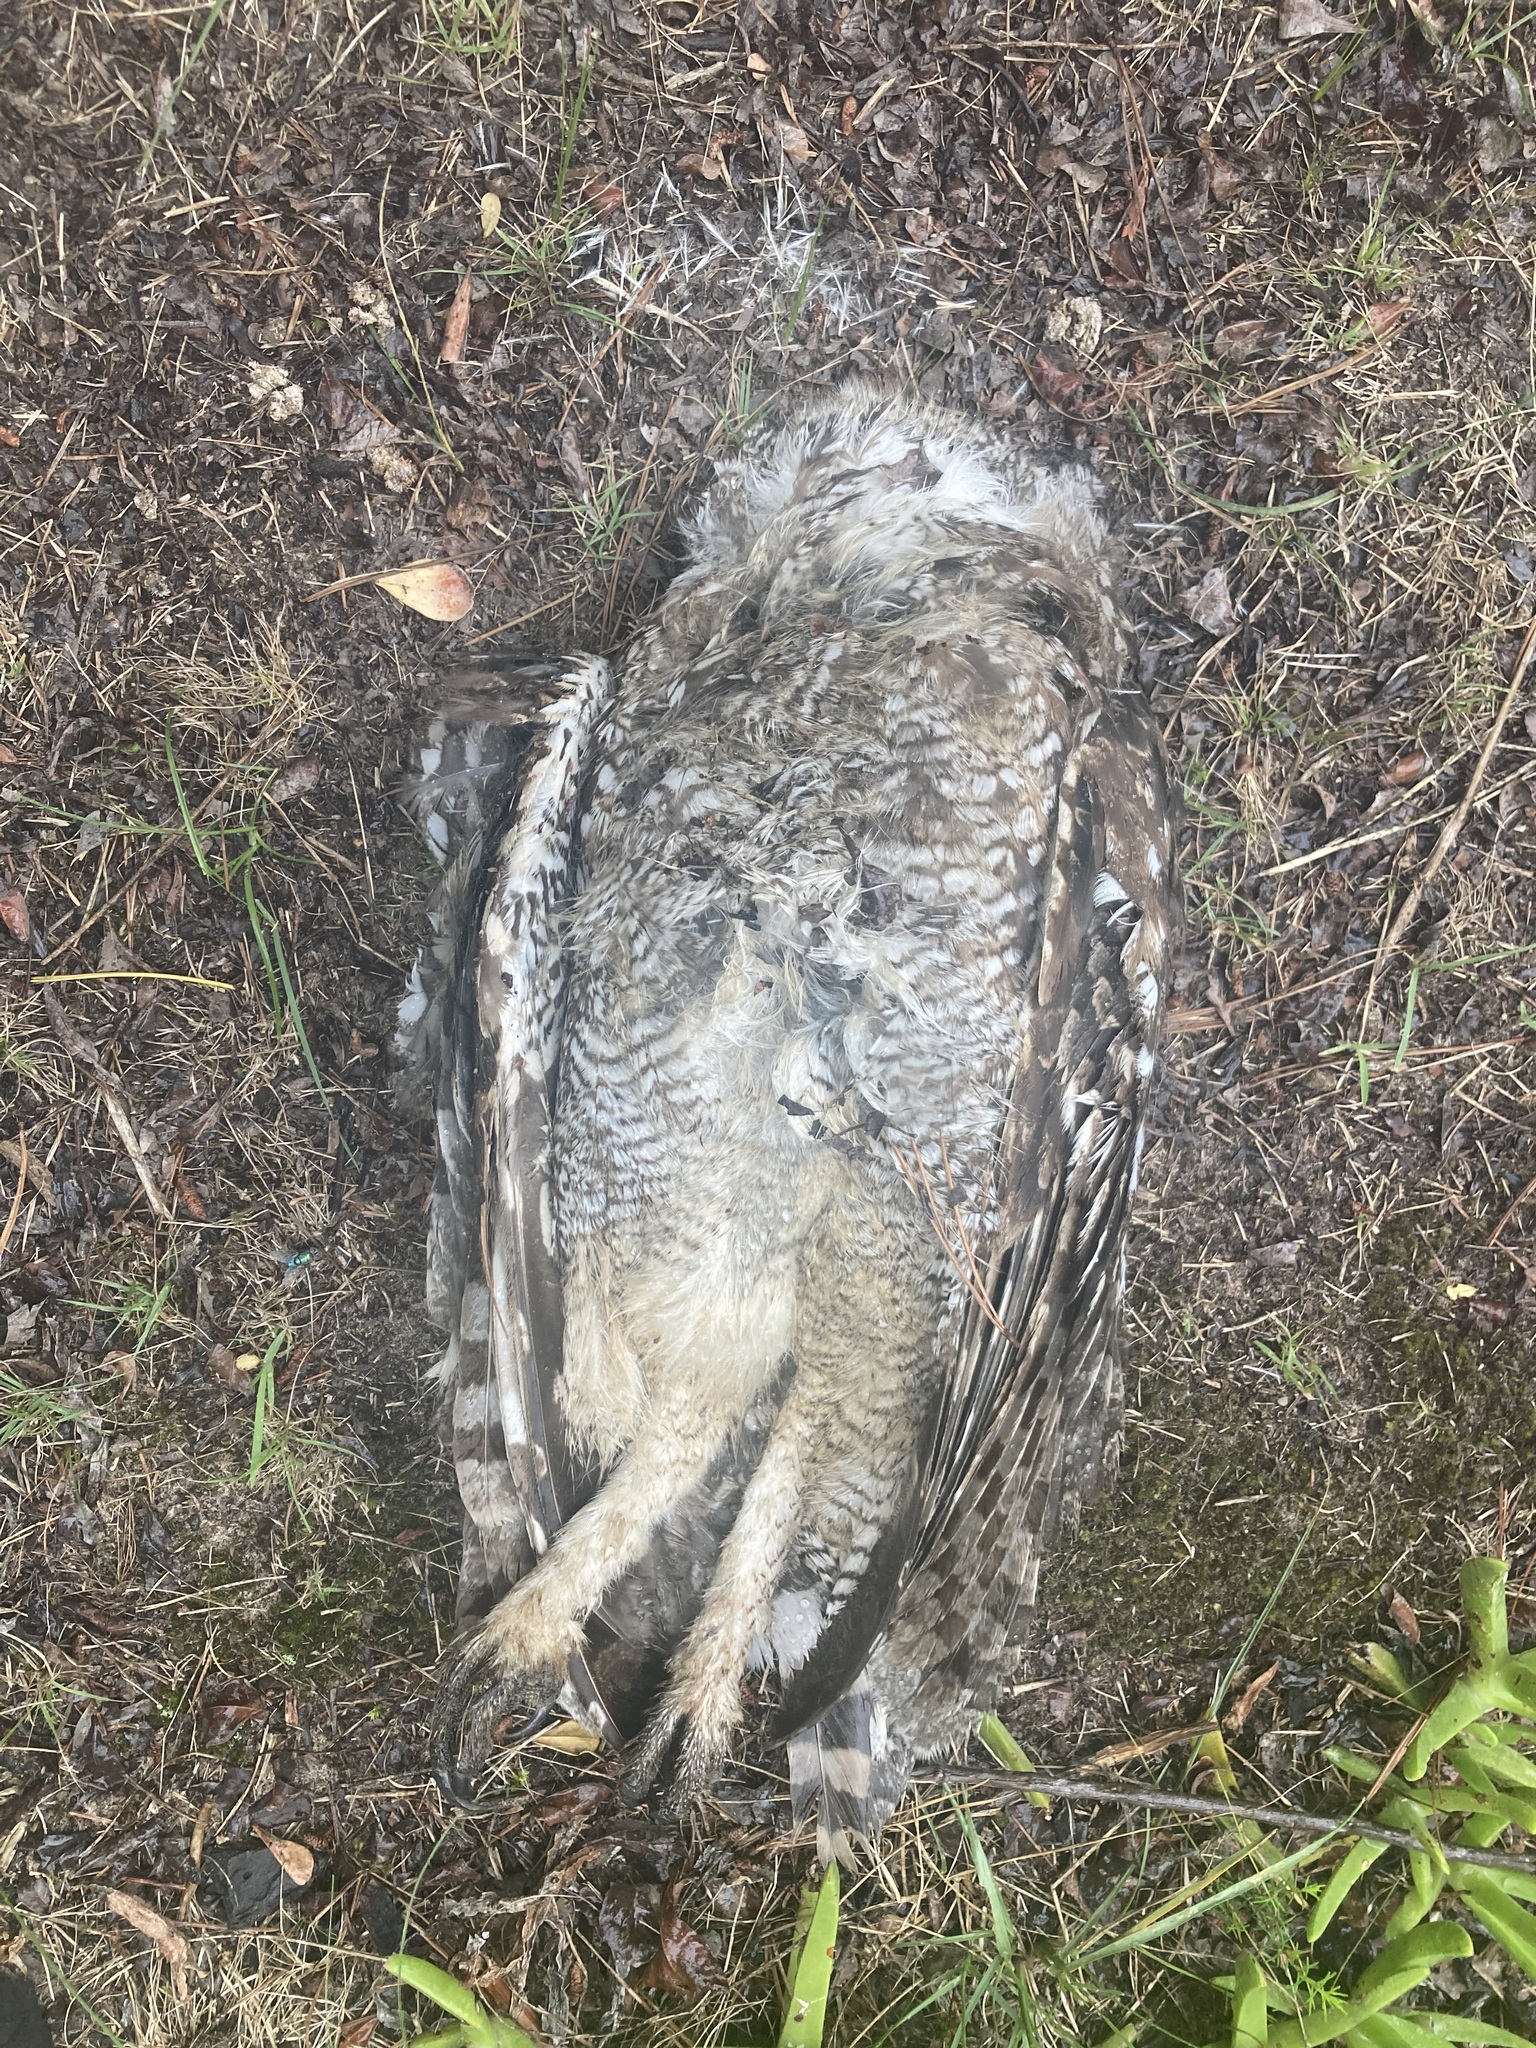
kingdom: Animalia
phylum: Chordata
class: Aves
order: Strigiformes
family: Strigidae
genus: Bubo
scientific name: Bubo africanus
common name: Spotted eagle-owl
